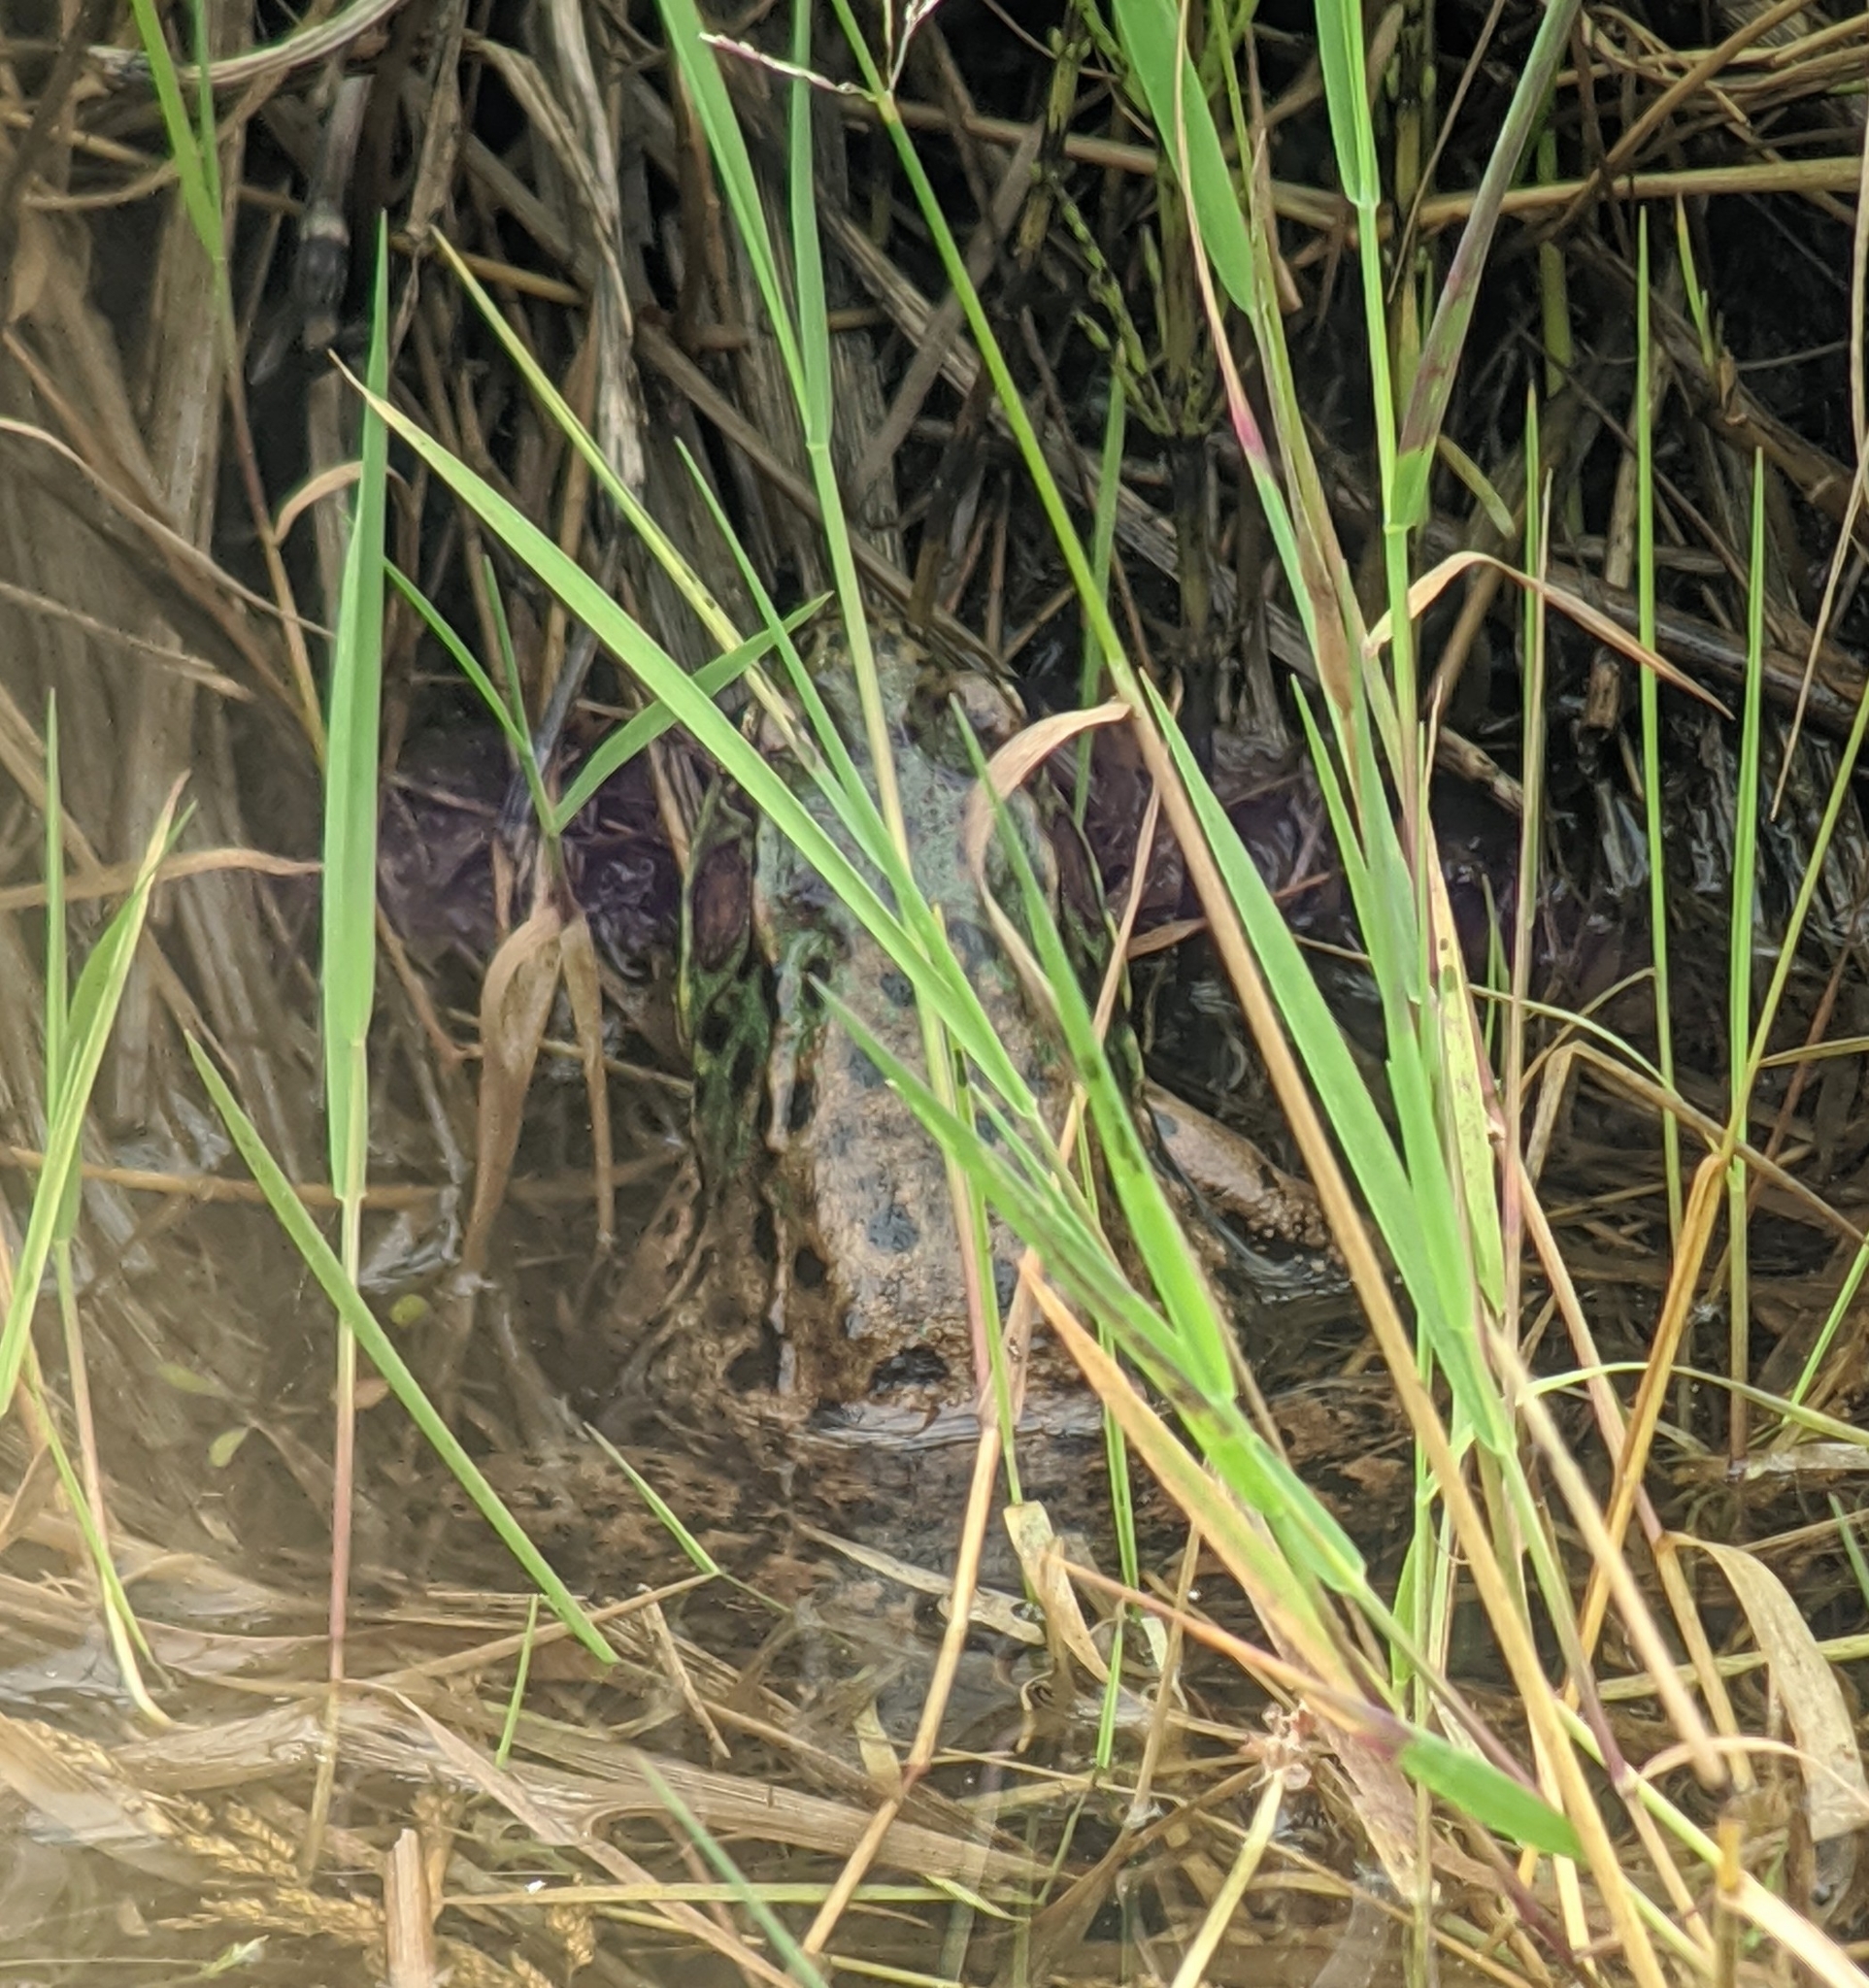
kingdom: Animalia
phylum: Chordata
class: Amphibia
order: Anura
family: Ranidae
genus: Lithobates
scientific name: Lithobates clamitans
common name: Green frog
